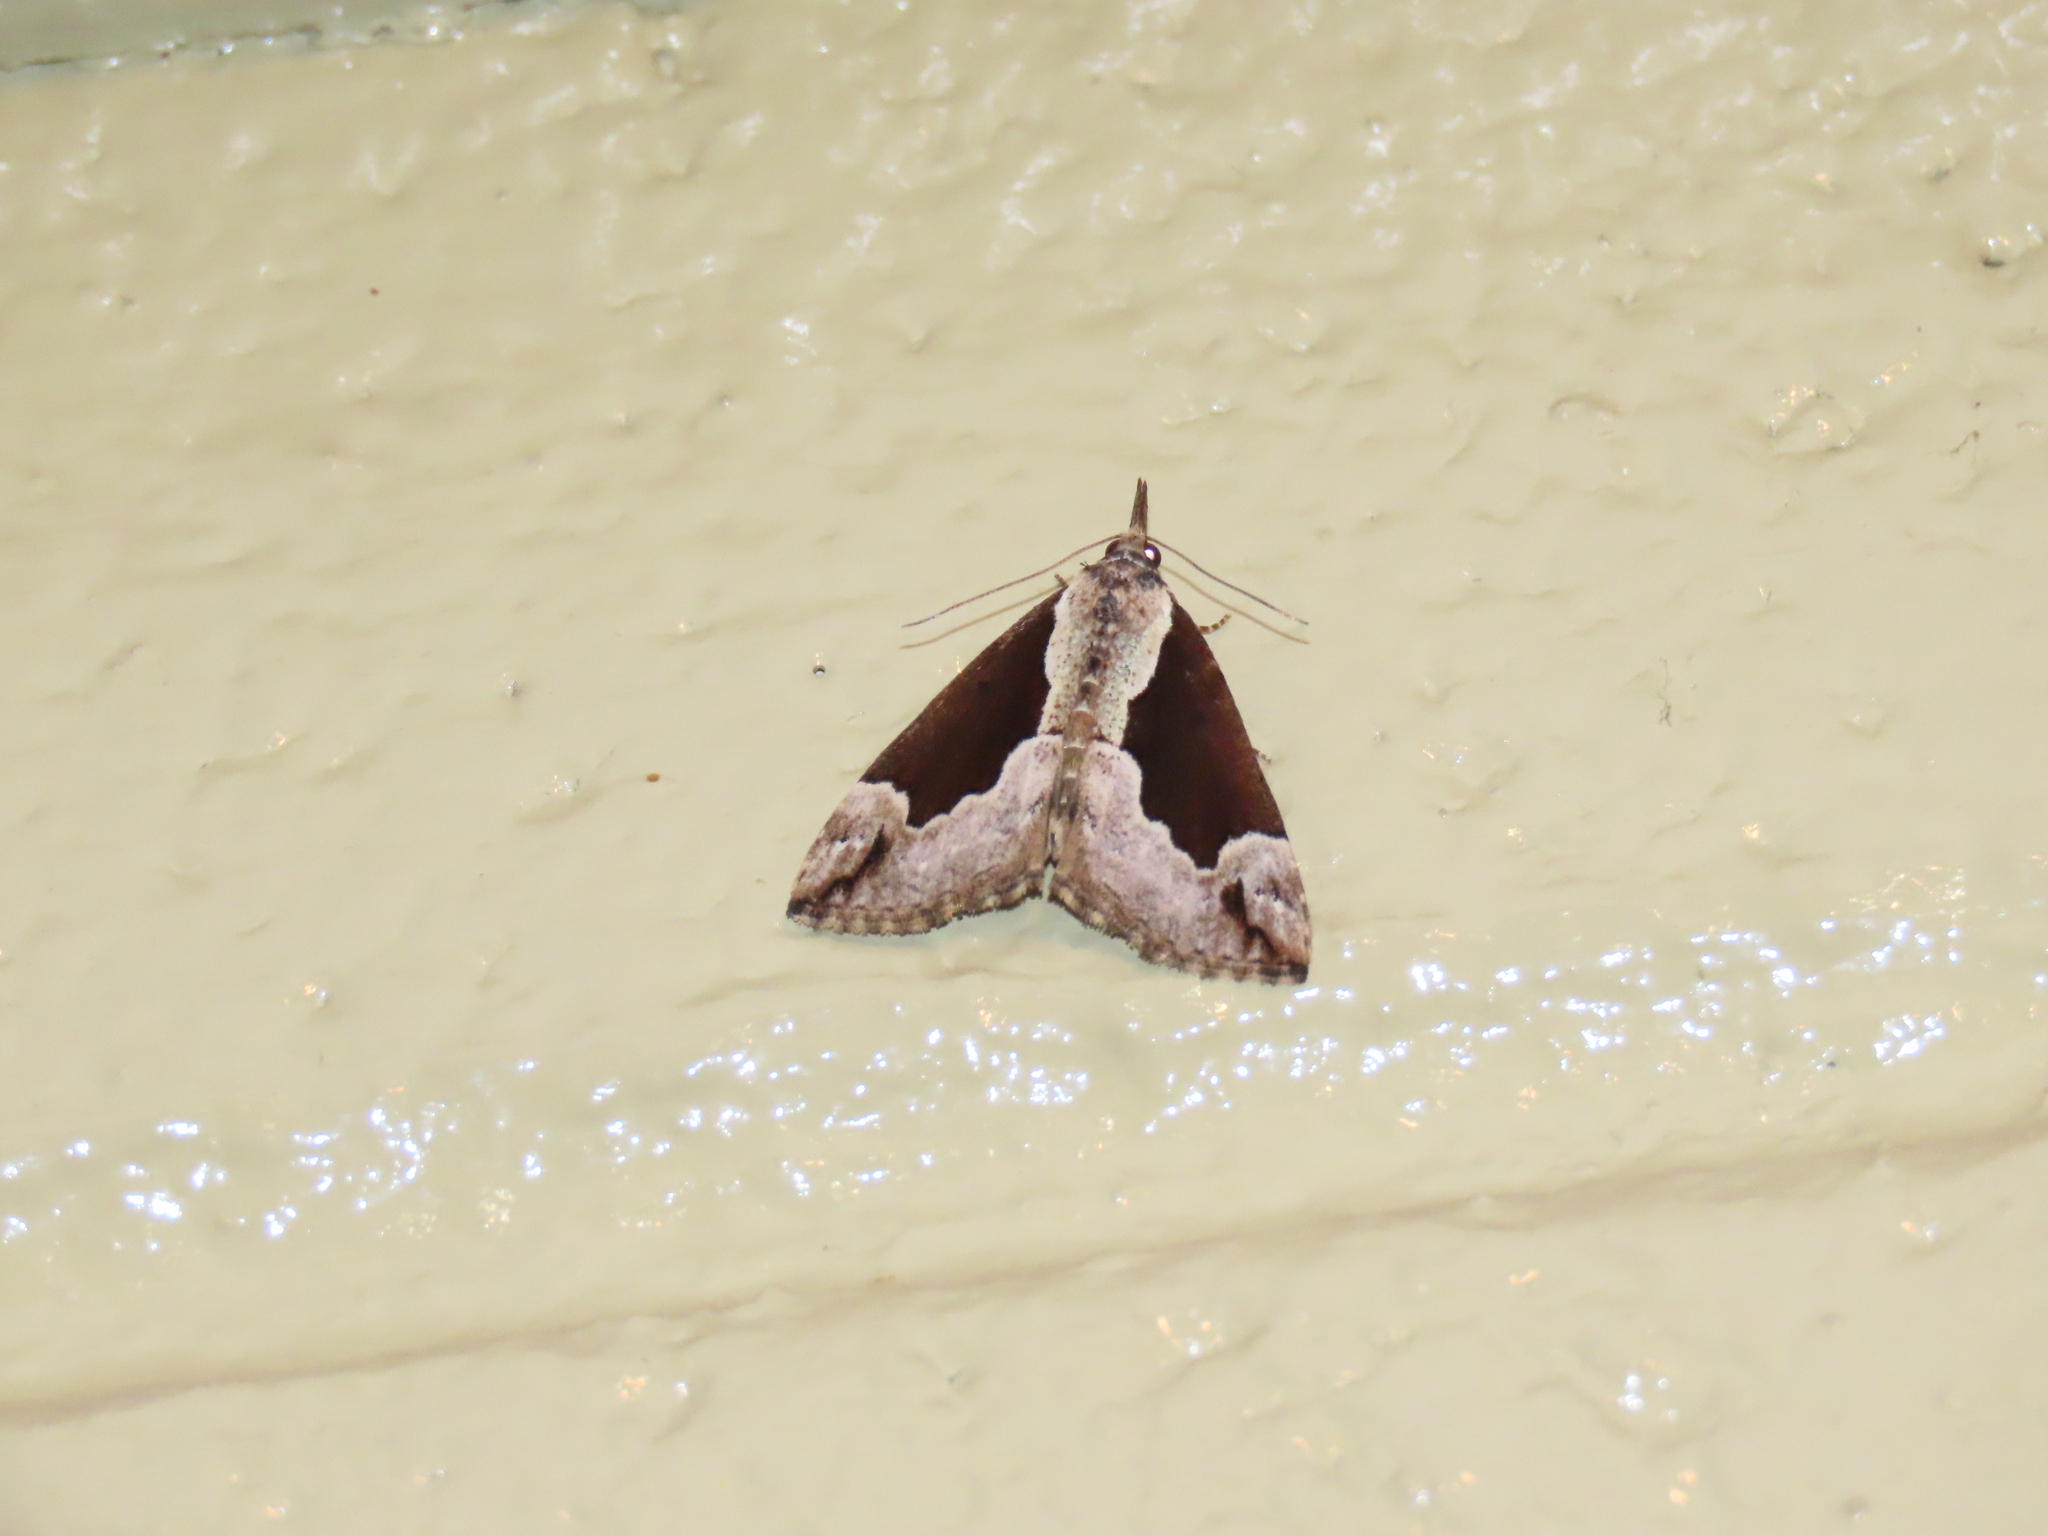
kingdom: Animalia
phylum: Arthropoda
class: Insecta
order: Lepidoptera
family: Erebidae
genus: Hypena
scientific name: Hypena baltimoralis
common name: Baltimore snout
